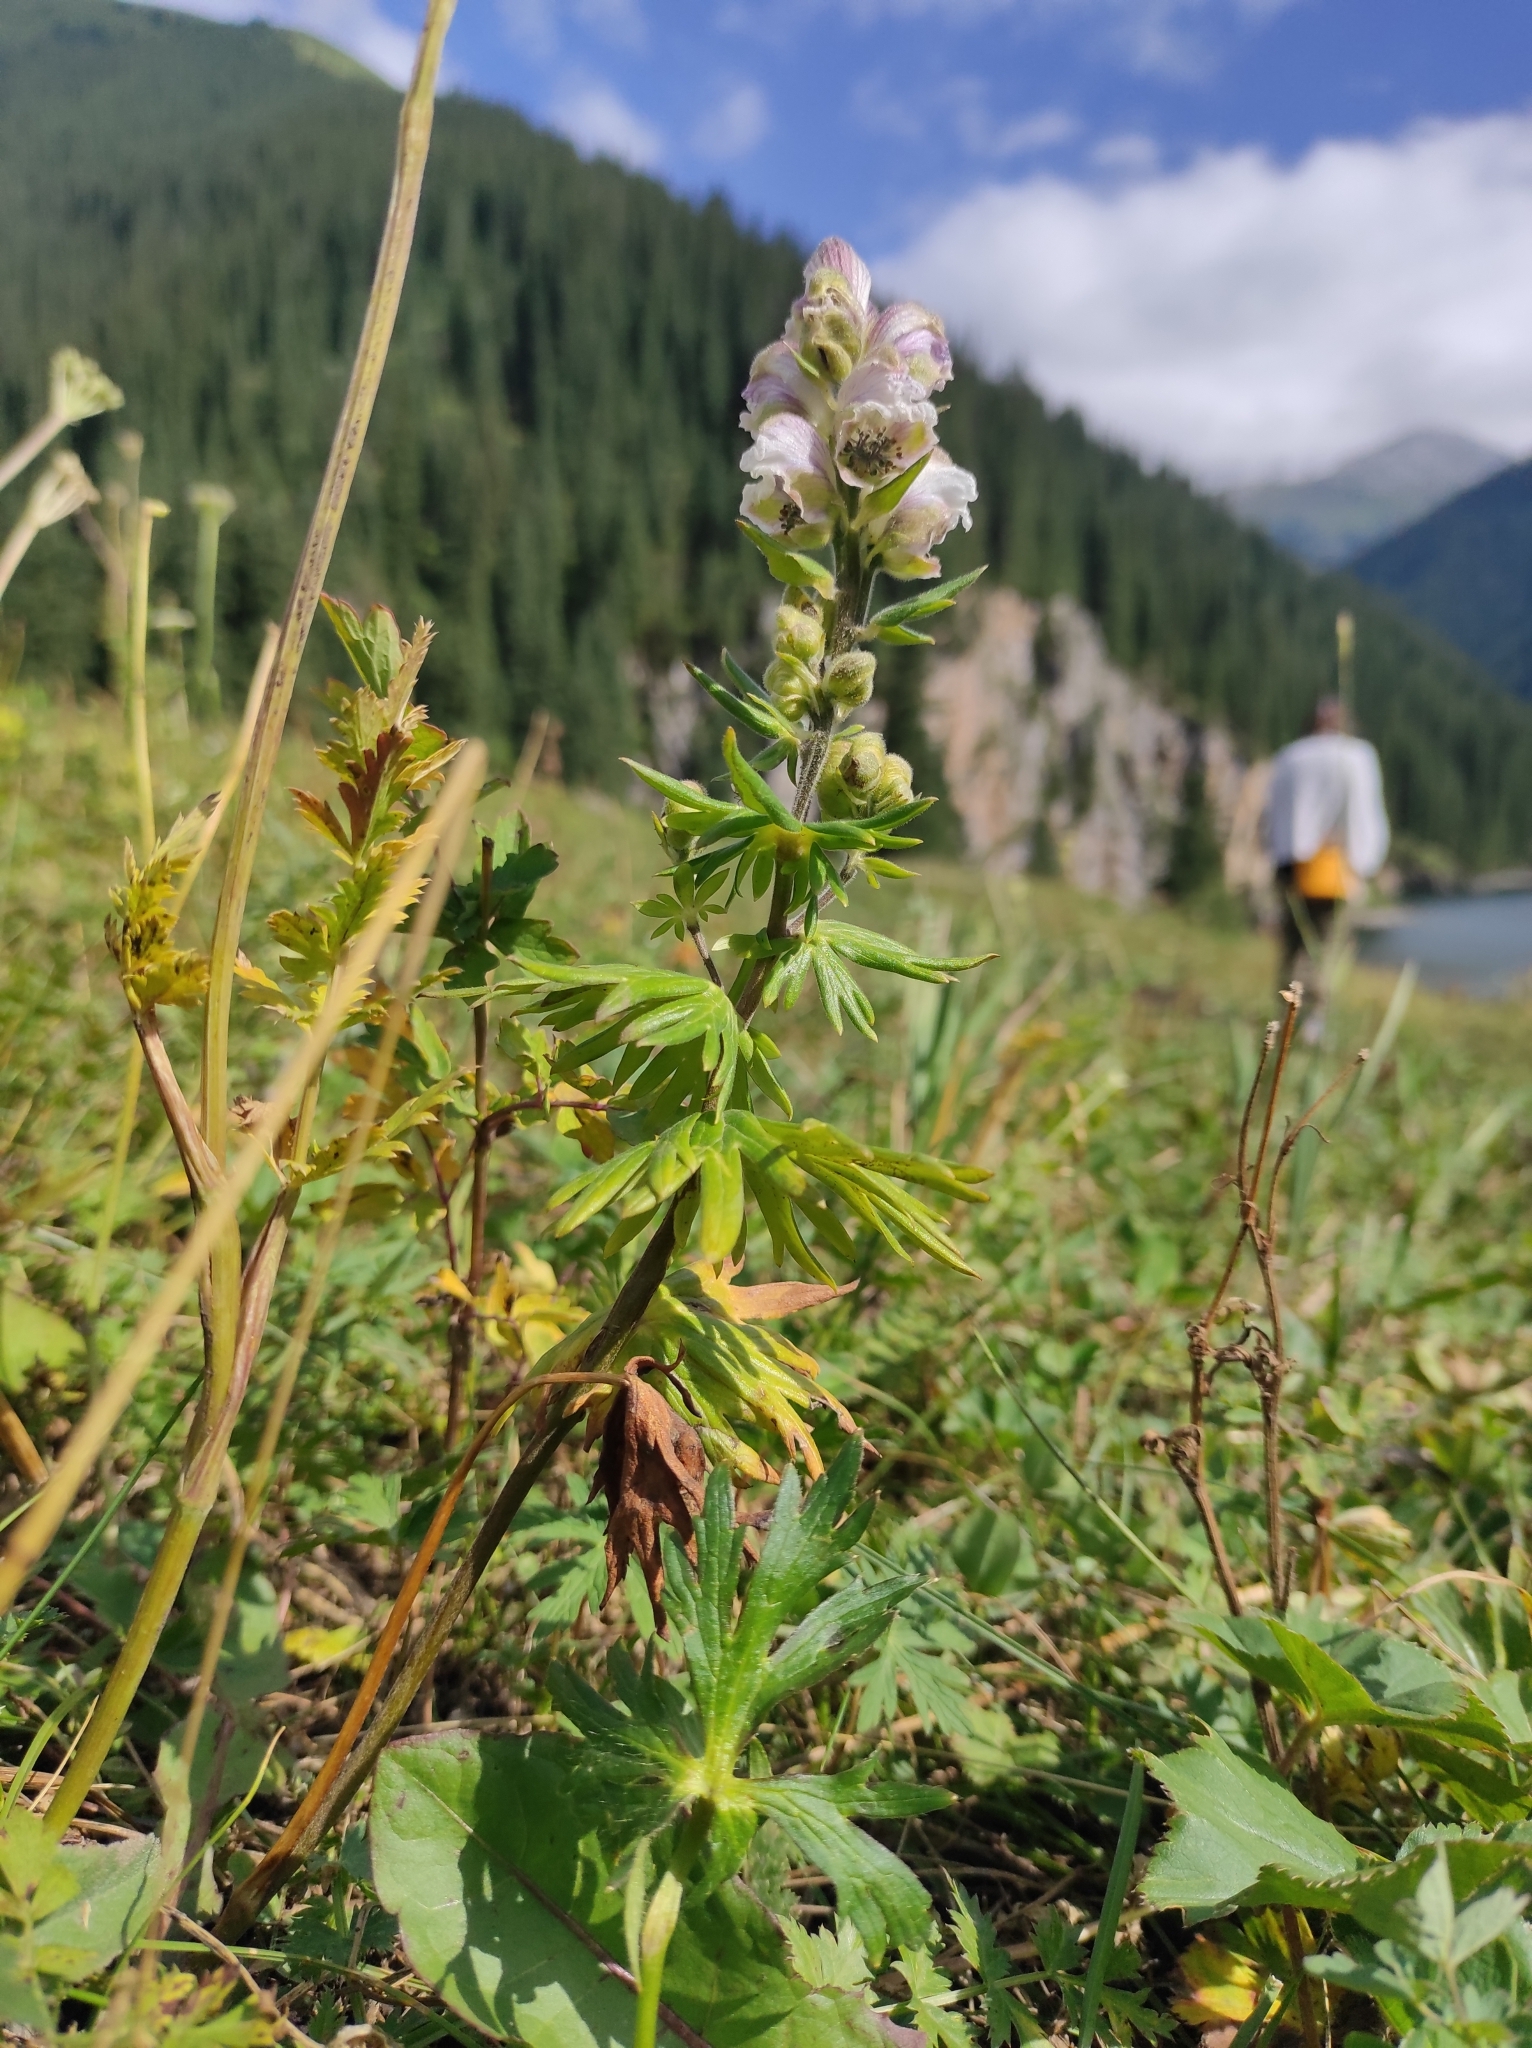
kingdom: Plantae
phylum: Tracheophyta
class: Magnoliopsida
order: Ranunculales
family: Ranunculaceae
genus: Aconitum
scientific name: Aconitum rotundifolium
